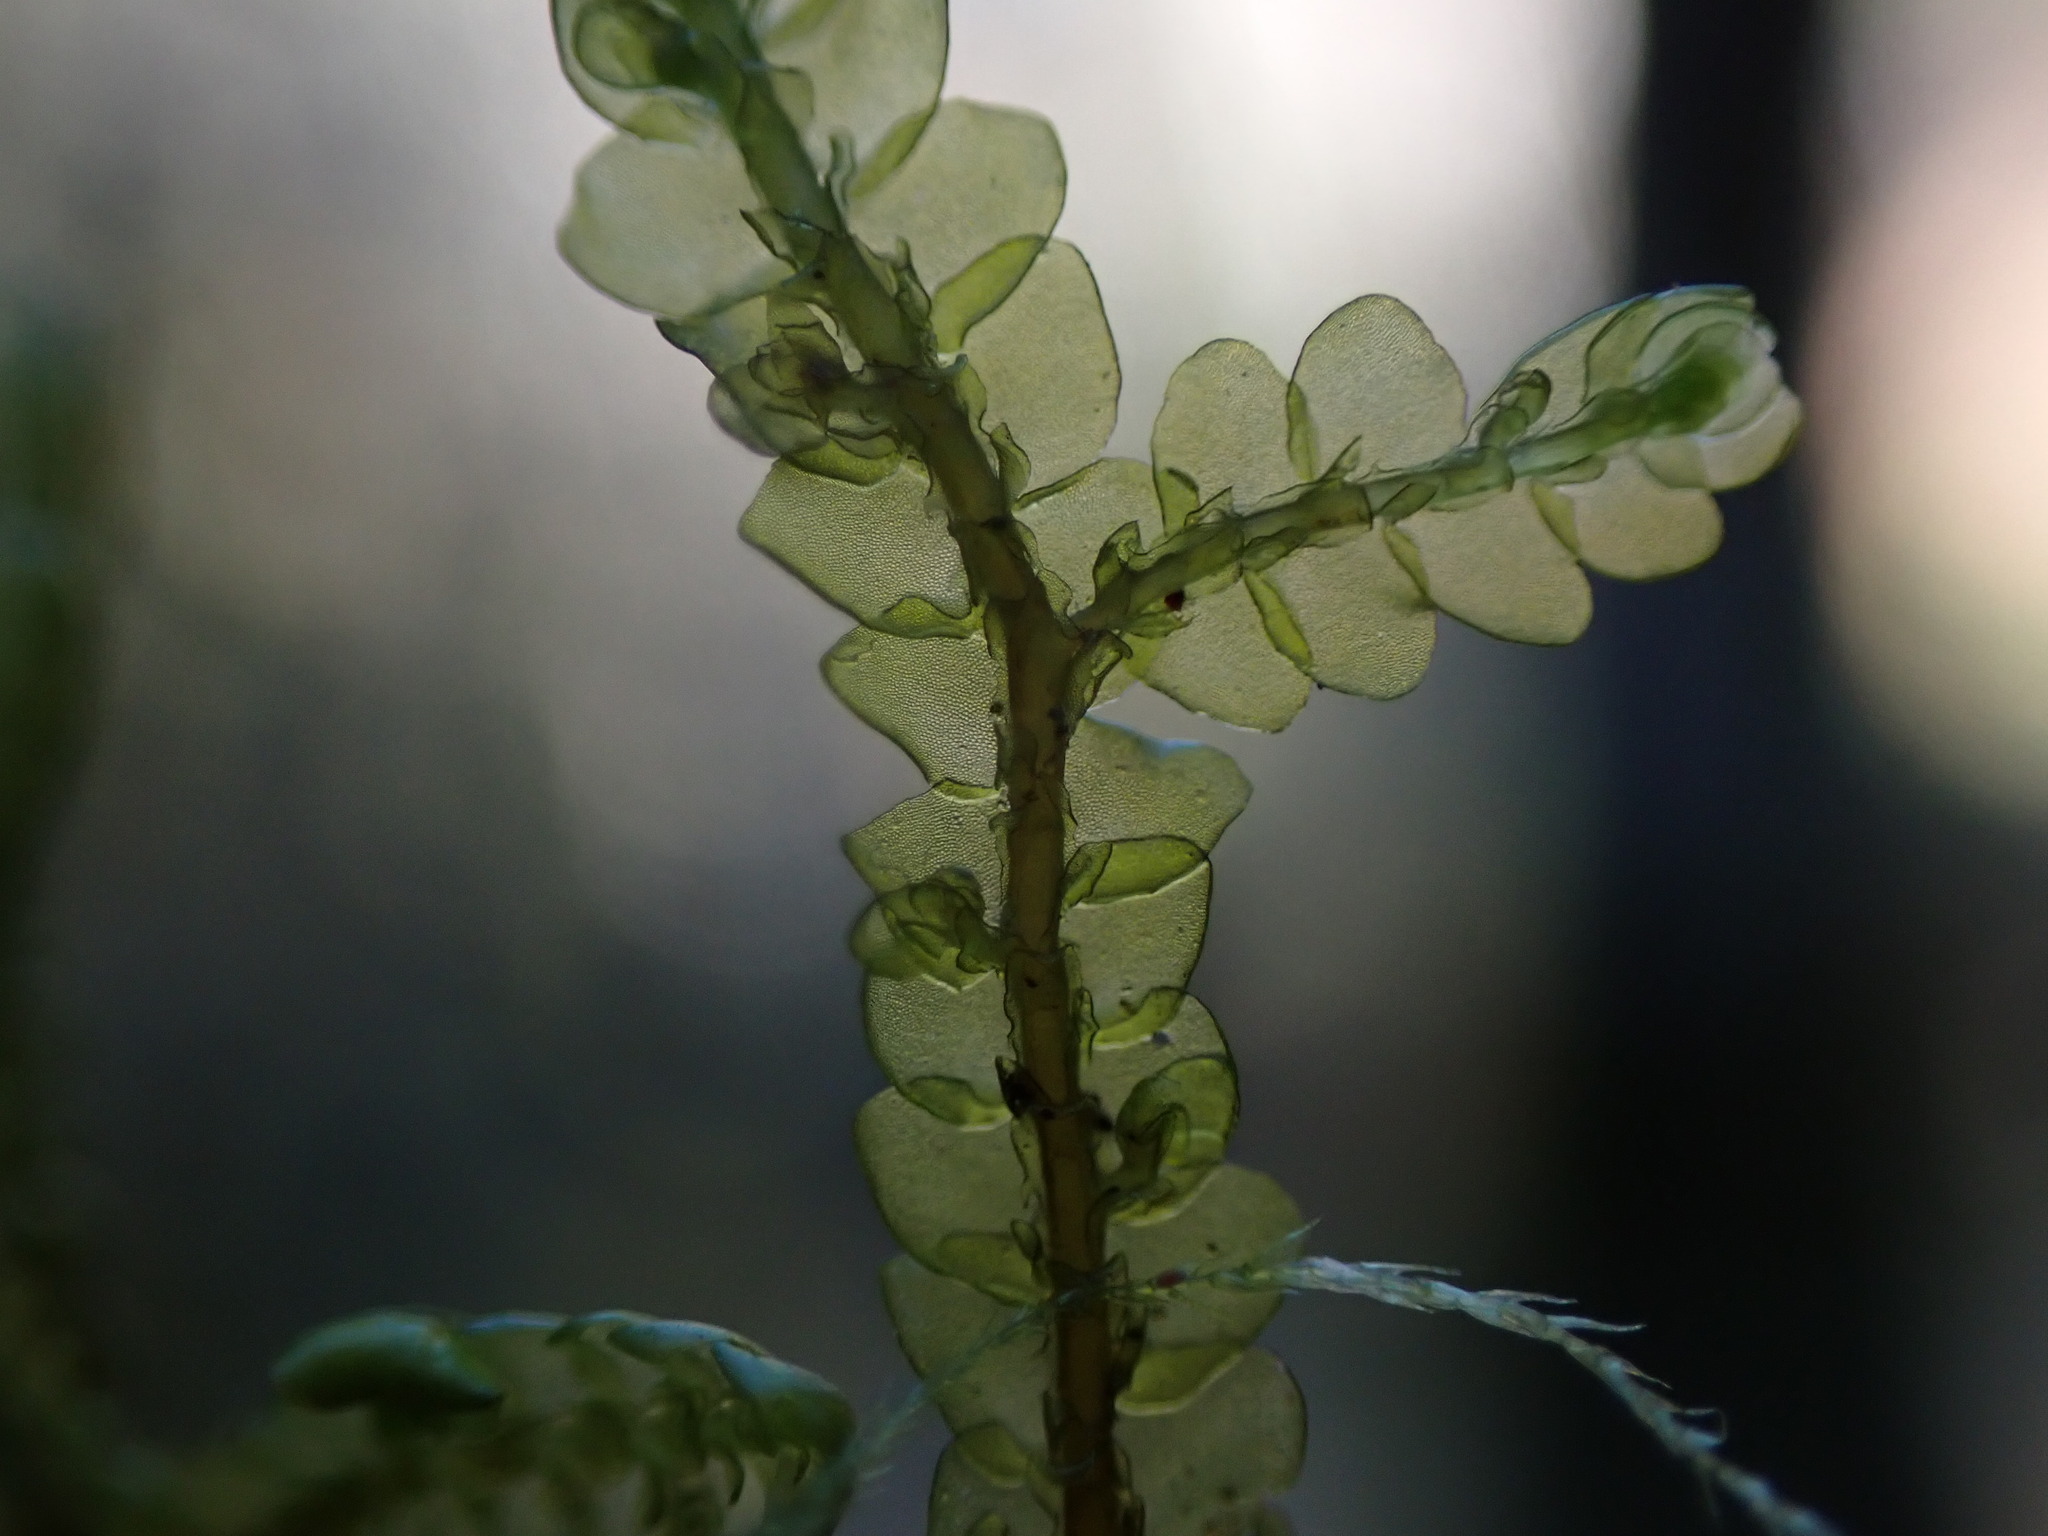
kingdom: Plantae
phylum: Marchantiophyta
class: Jungermanniopsida
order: Porellales
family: Porellaceae
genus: Porella
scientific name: Porella cordaeana
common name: Cliff scalewort
